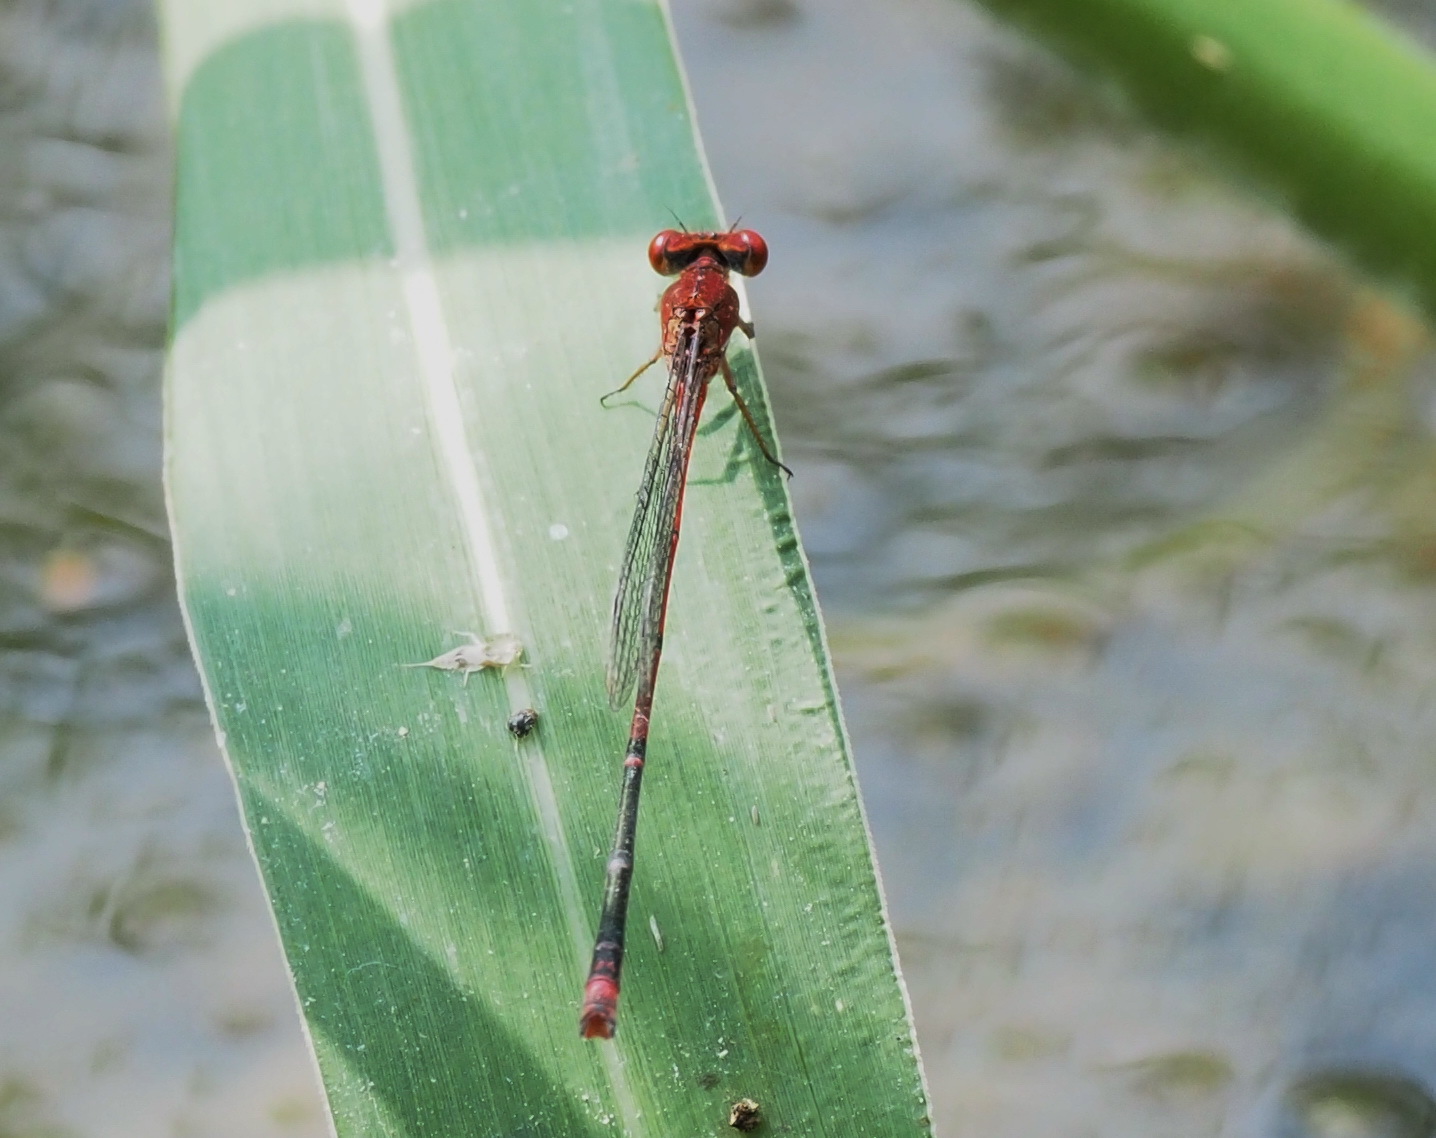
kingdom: Animalia
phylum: Arthropoda
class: Insecta
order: Odonata
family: Coenagrionidae
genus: Pseudagrion
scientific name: Pseudagrion pilidorsum
